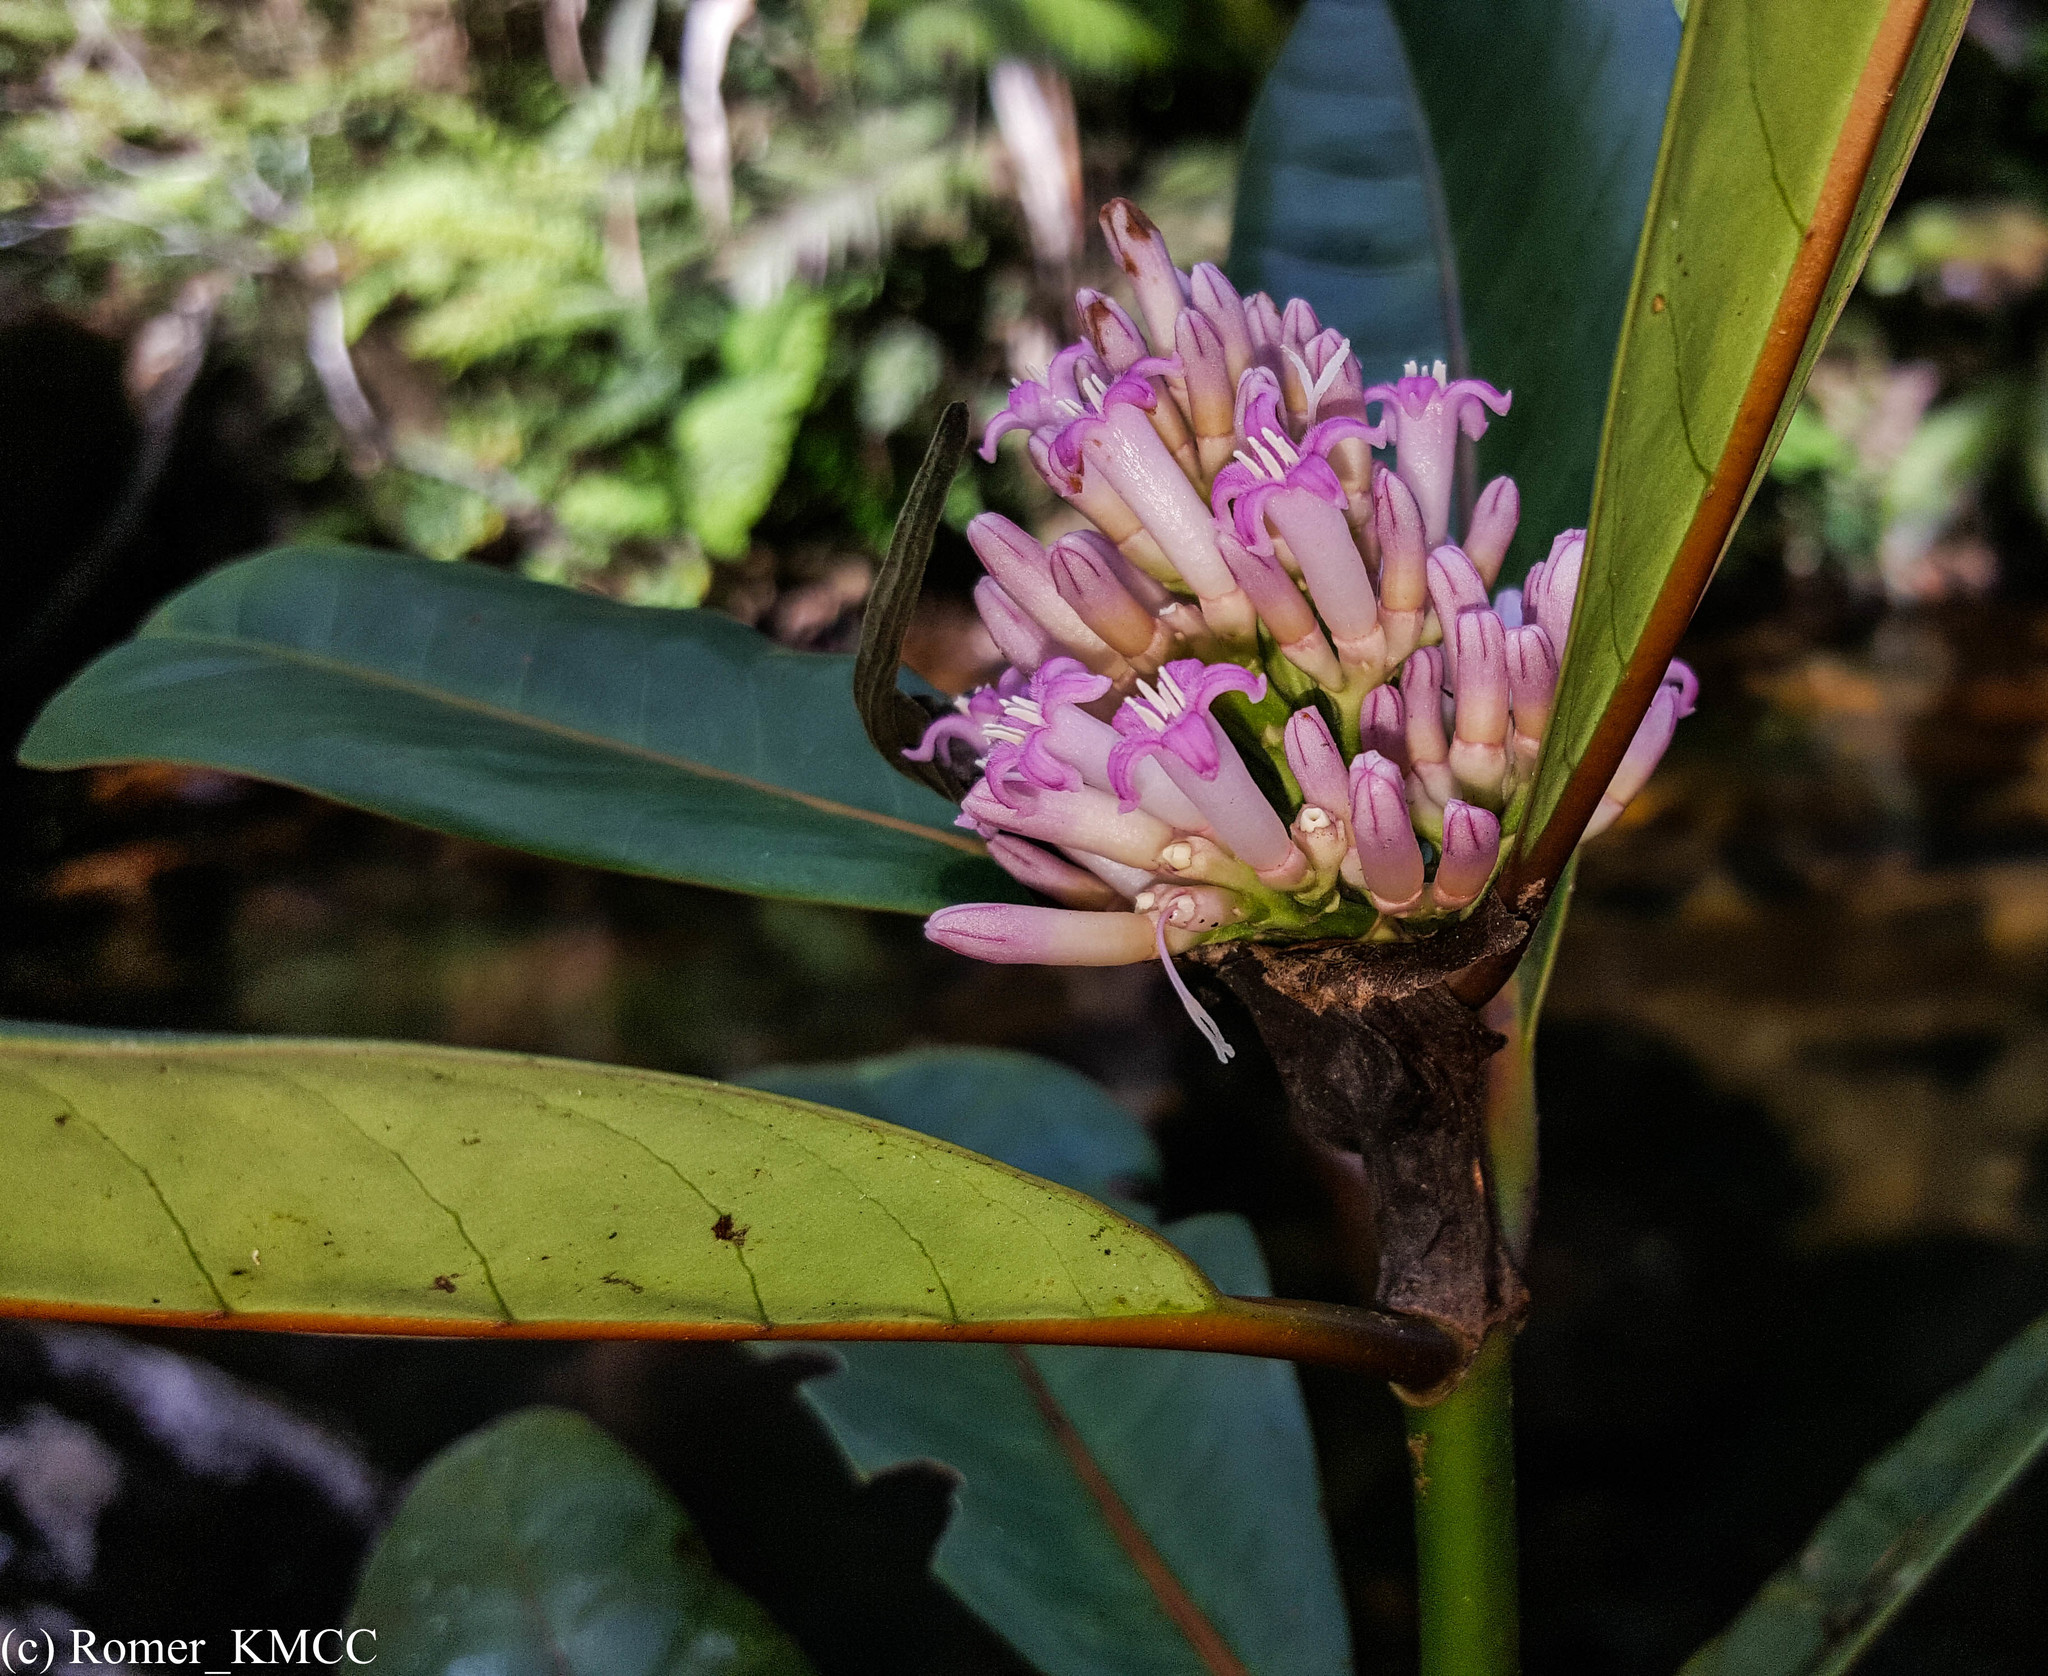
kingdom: Plantae
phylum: Tracheophyta
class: Magnoliopsida
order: Gentianales
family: Rubiaceae
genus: Gaertnera
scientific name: Gaertnera macrostipula
